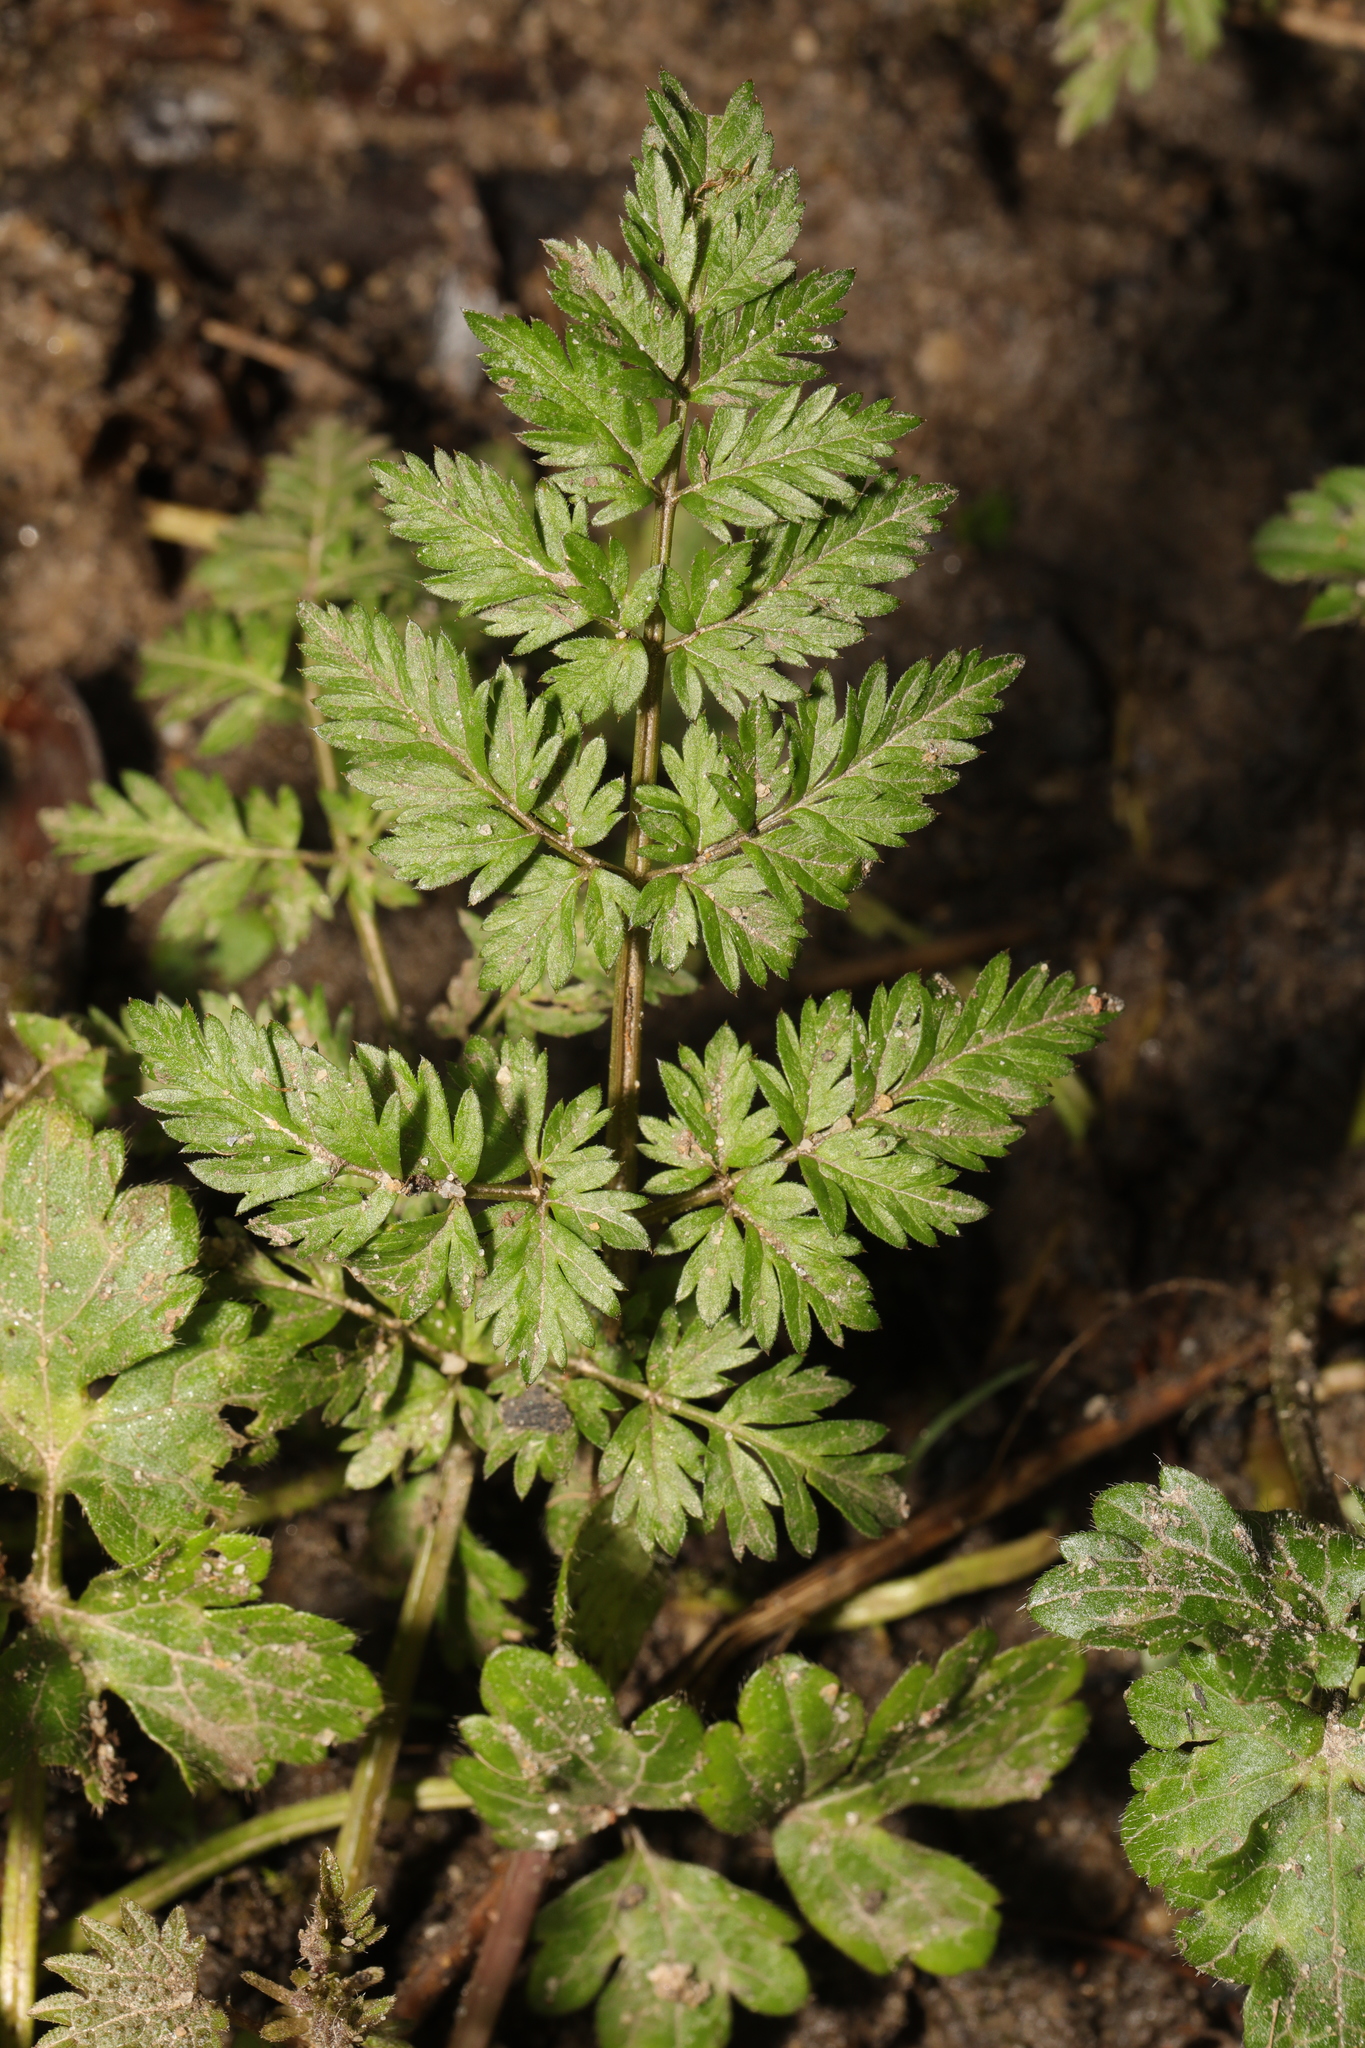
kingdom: Plantae
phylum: Tracheophyta
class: Magnoliopsida
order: Apiales
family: Apiaceae
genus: Anthriscus
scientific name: Anthriscus sylvestris
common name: Cow parsley
